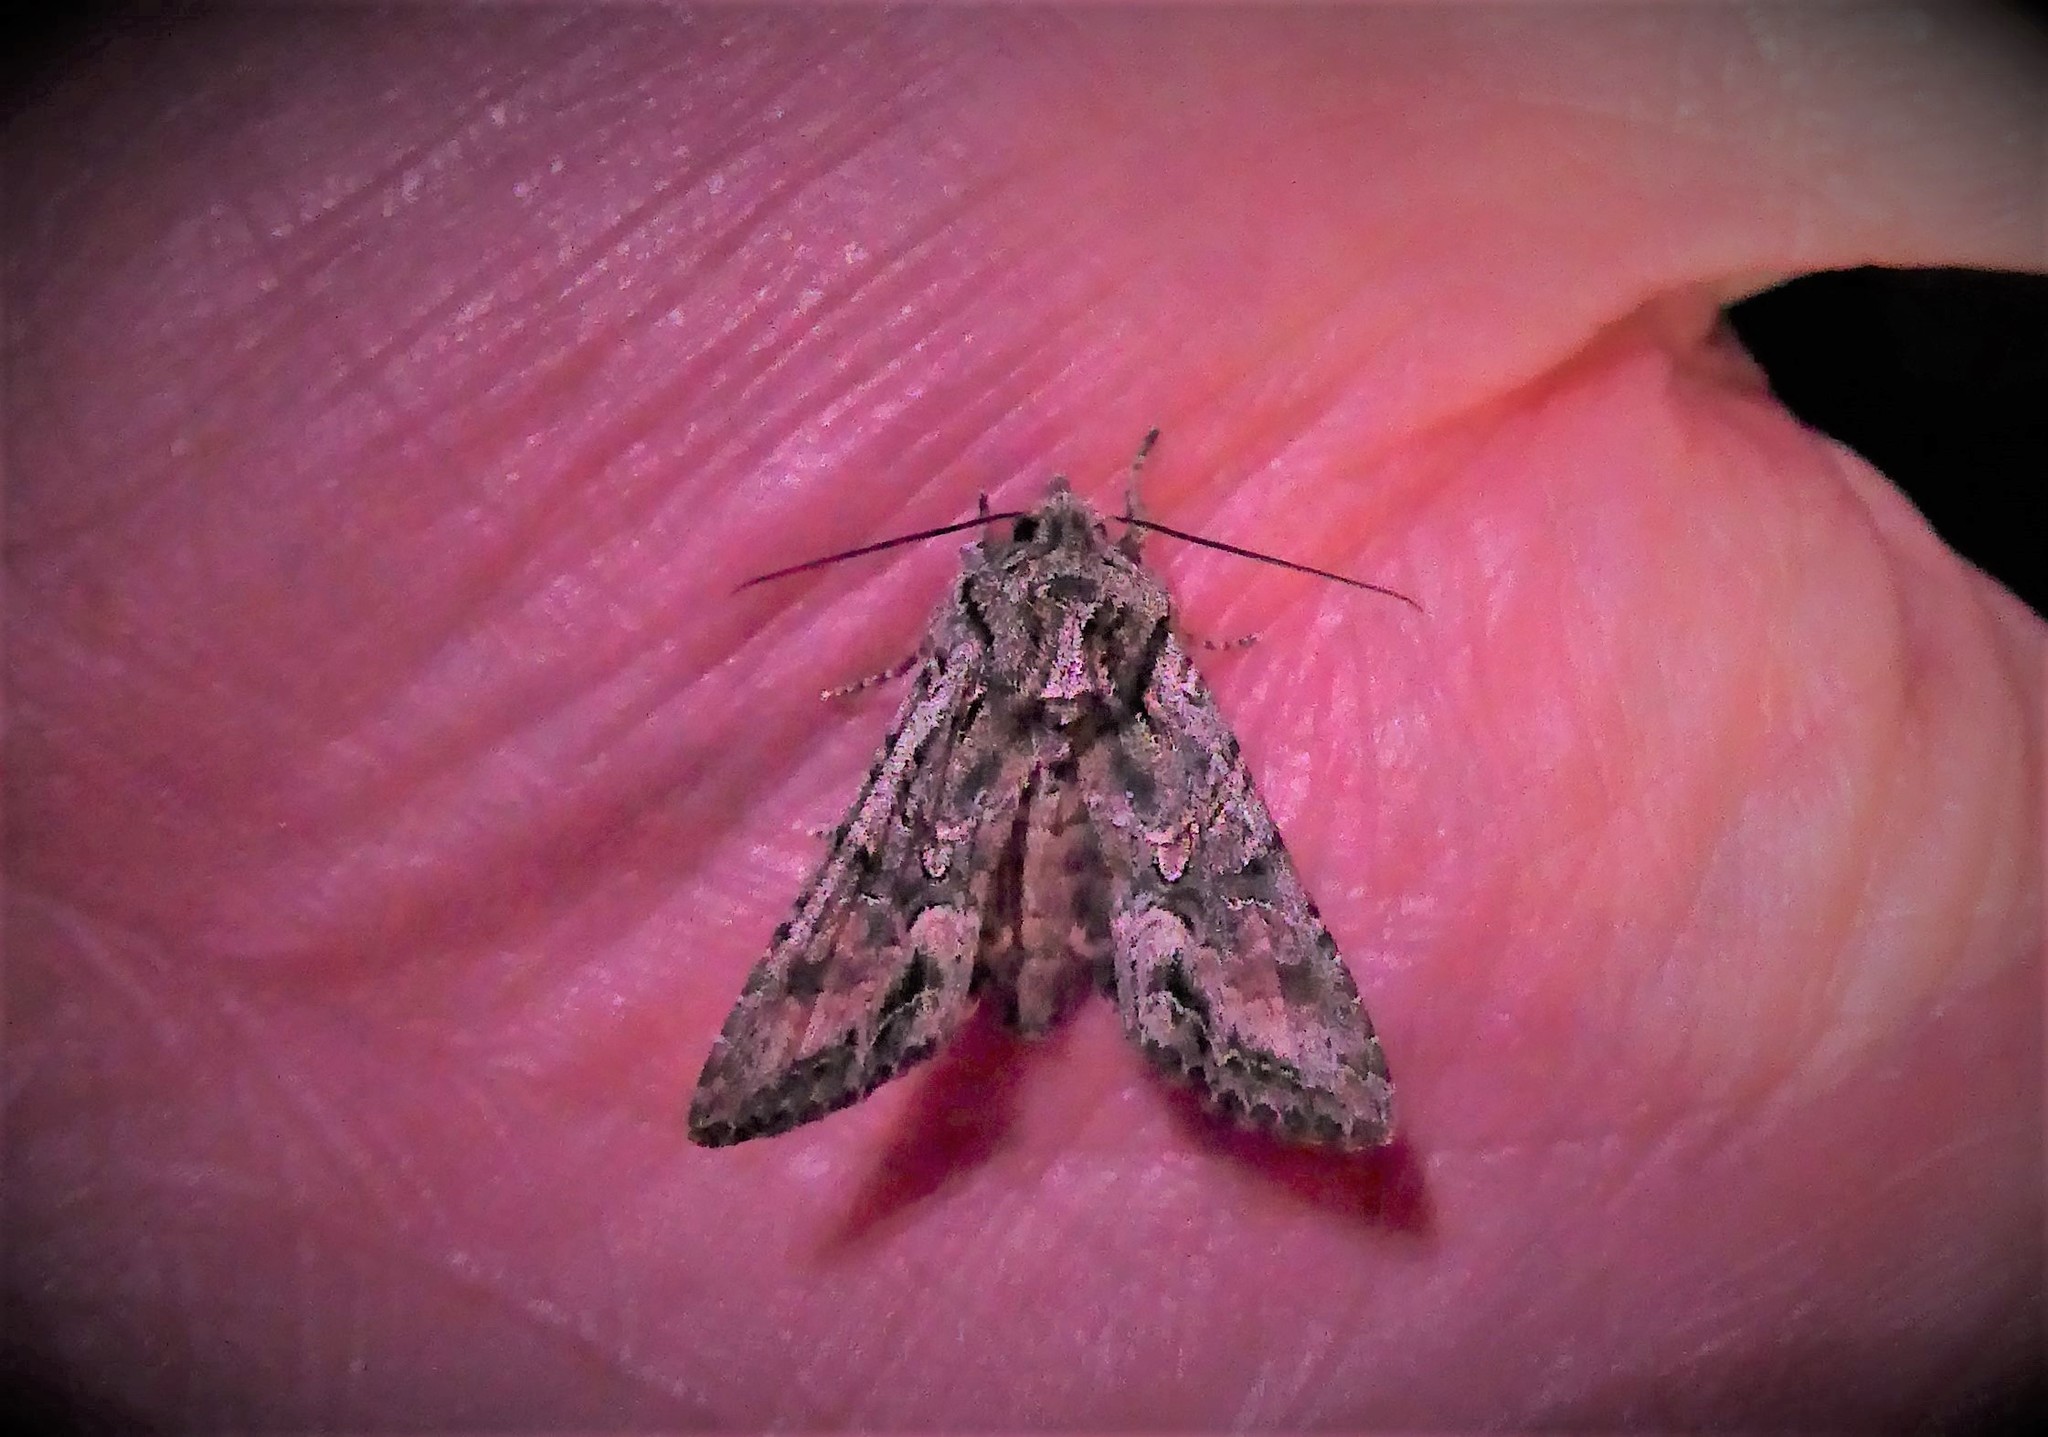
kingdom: Animalia
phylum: Arthropoda
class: Insecta
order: Lepidoptera
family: Noctuidae
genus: Ichneutica
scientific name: Ichneutica mutans
